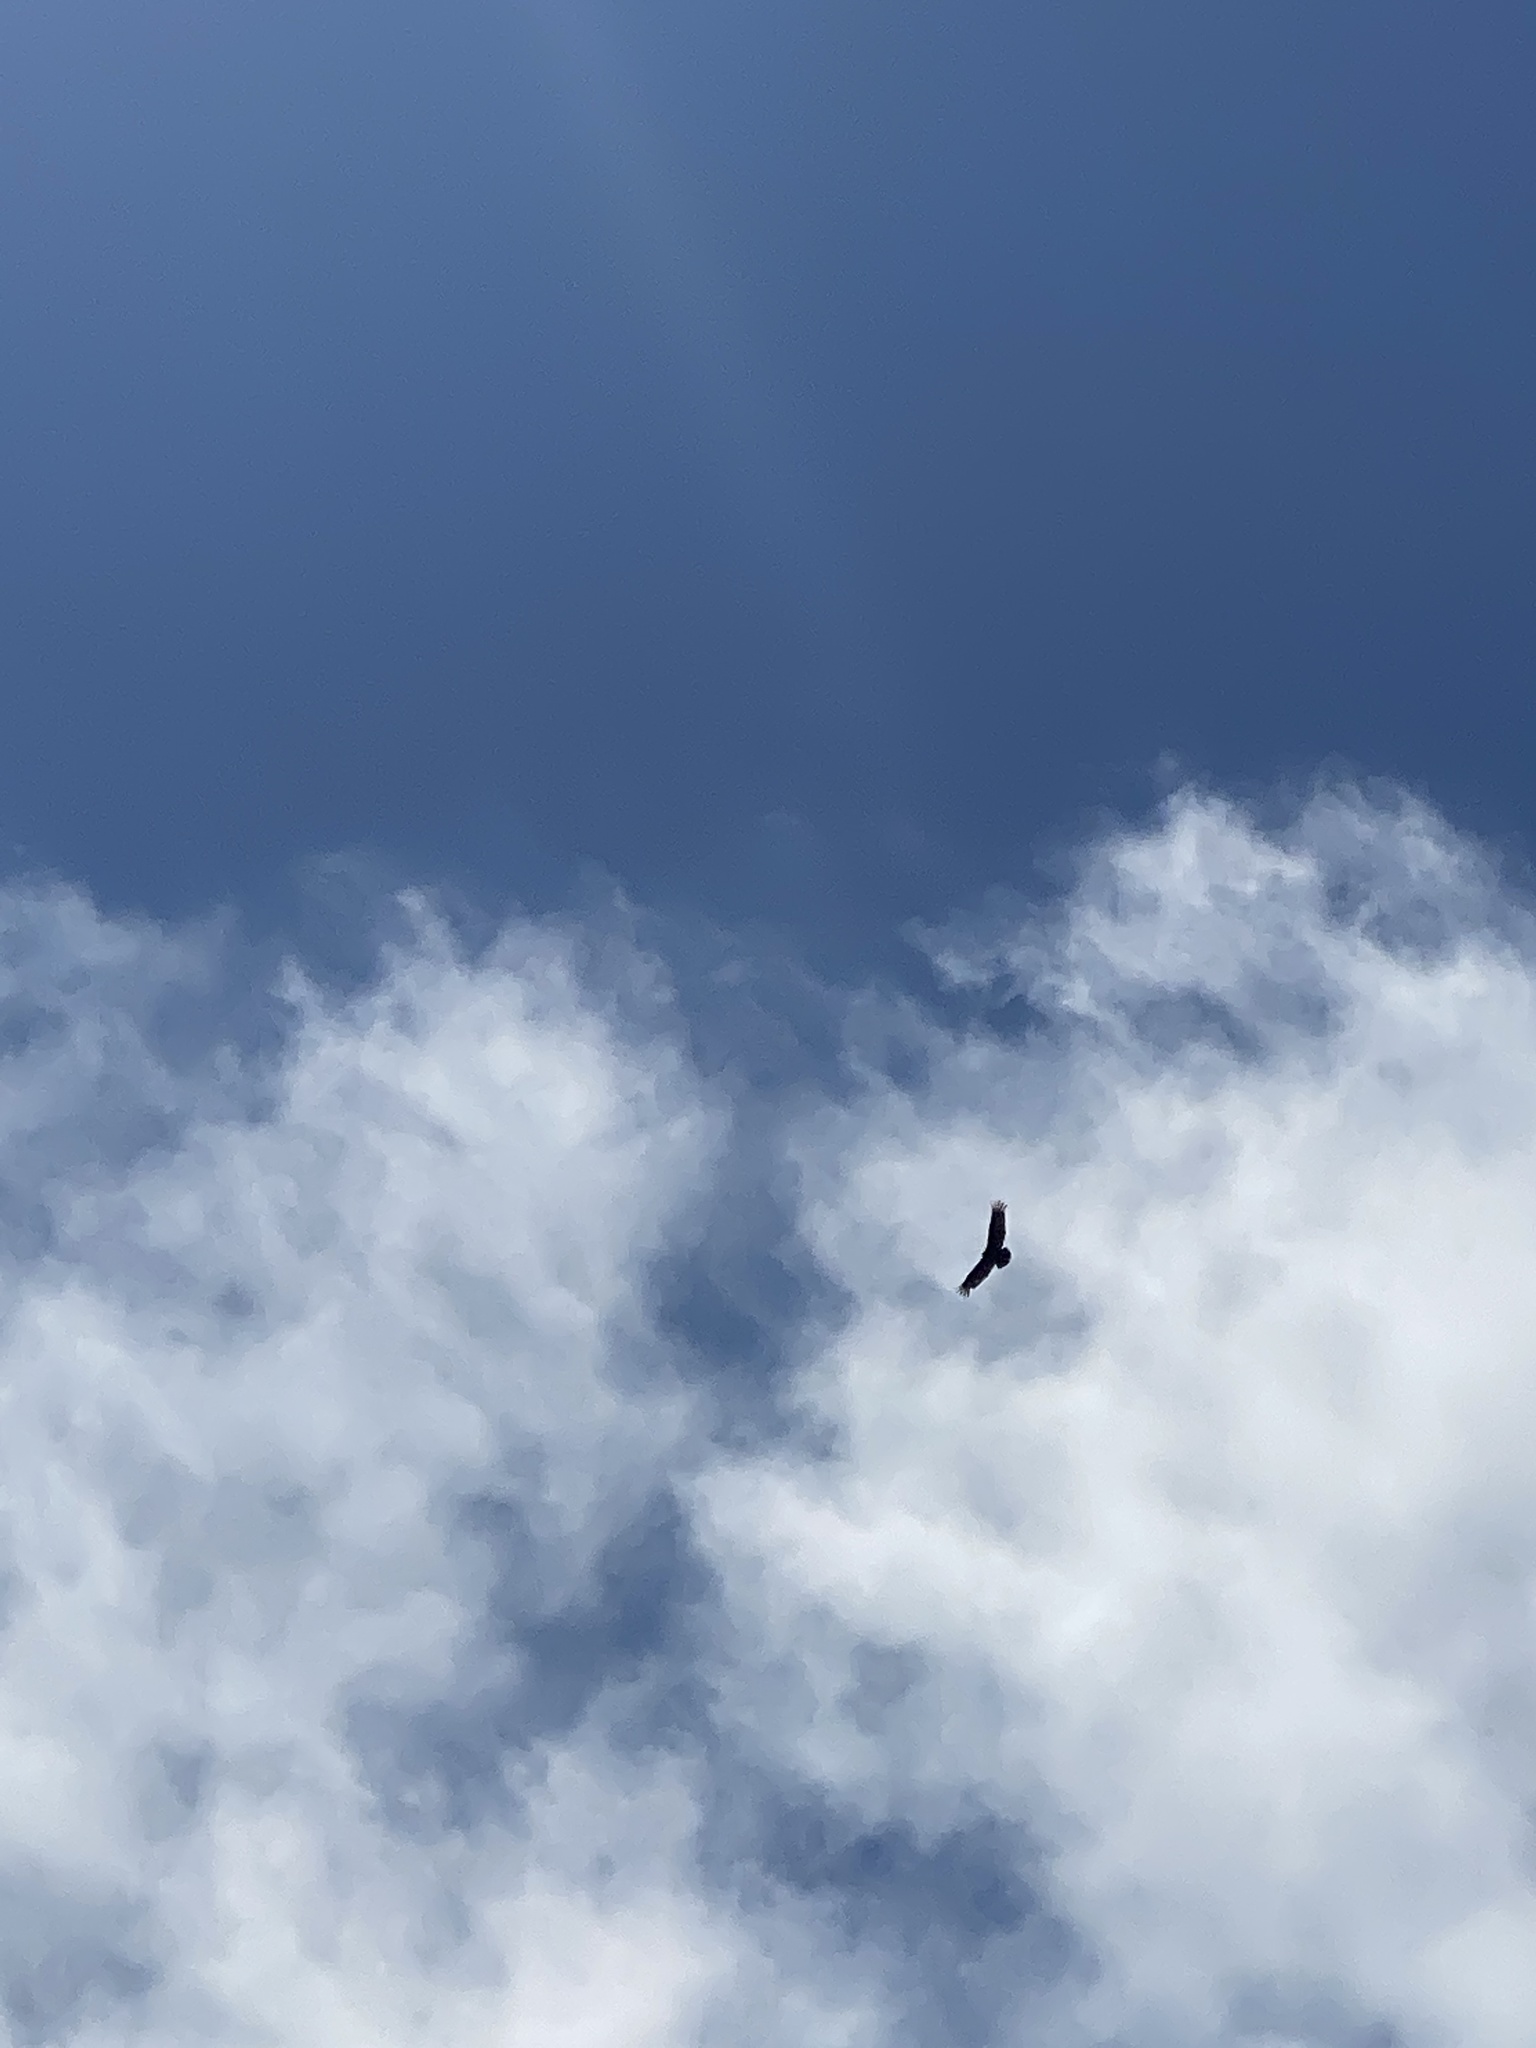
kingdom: Animalia
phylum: Chordata
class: Aves
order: Accipitriformes
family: Cathartidae
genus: Cathartes
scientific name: Cathartes aura
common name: Turkey vulture
